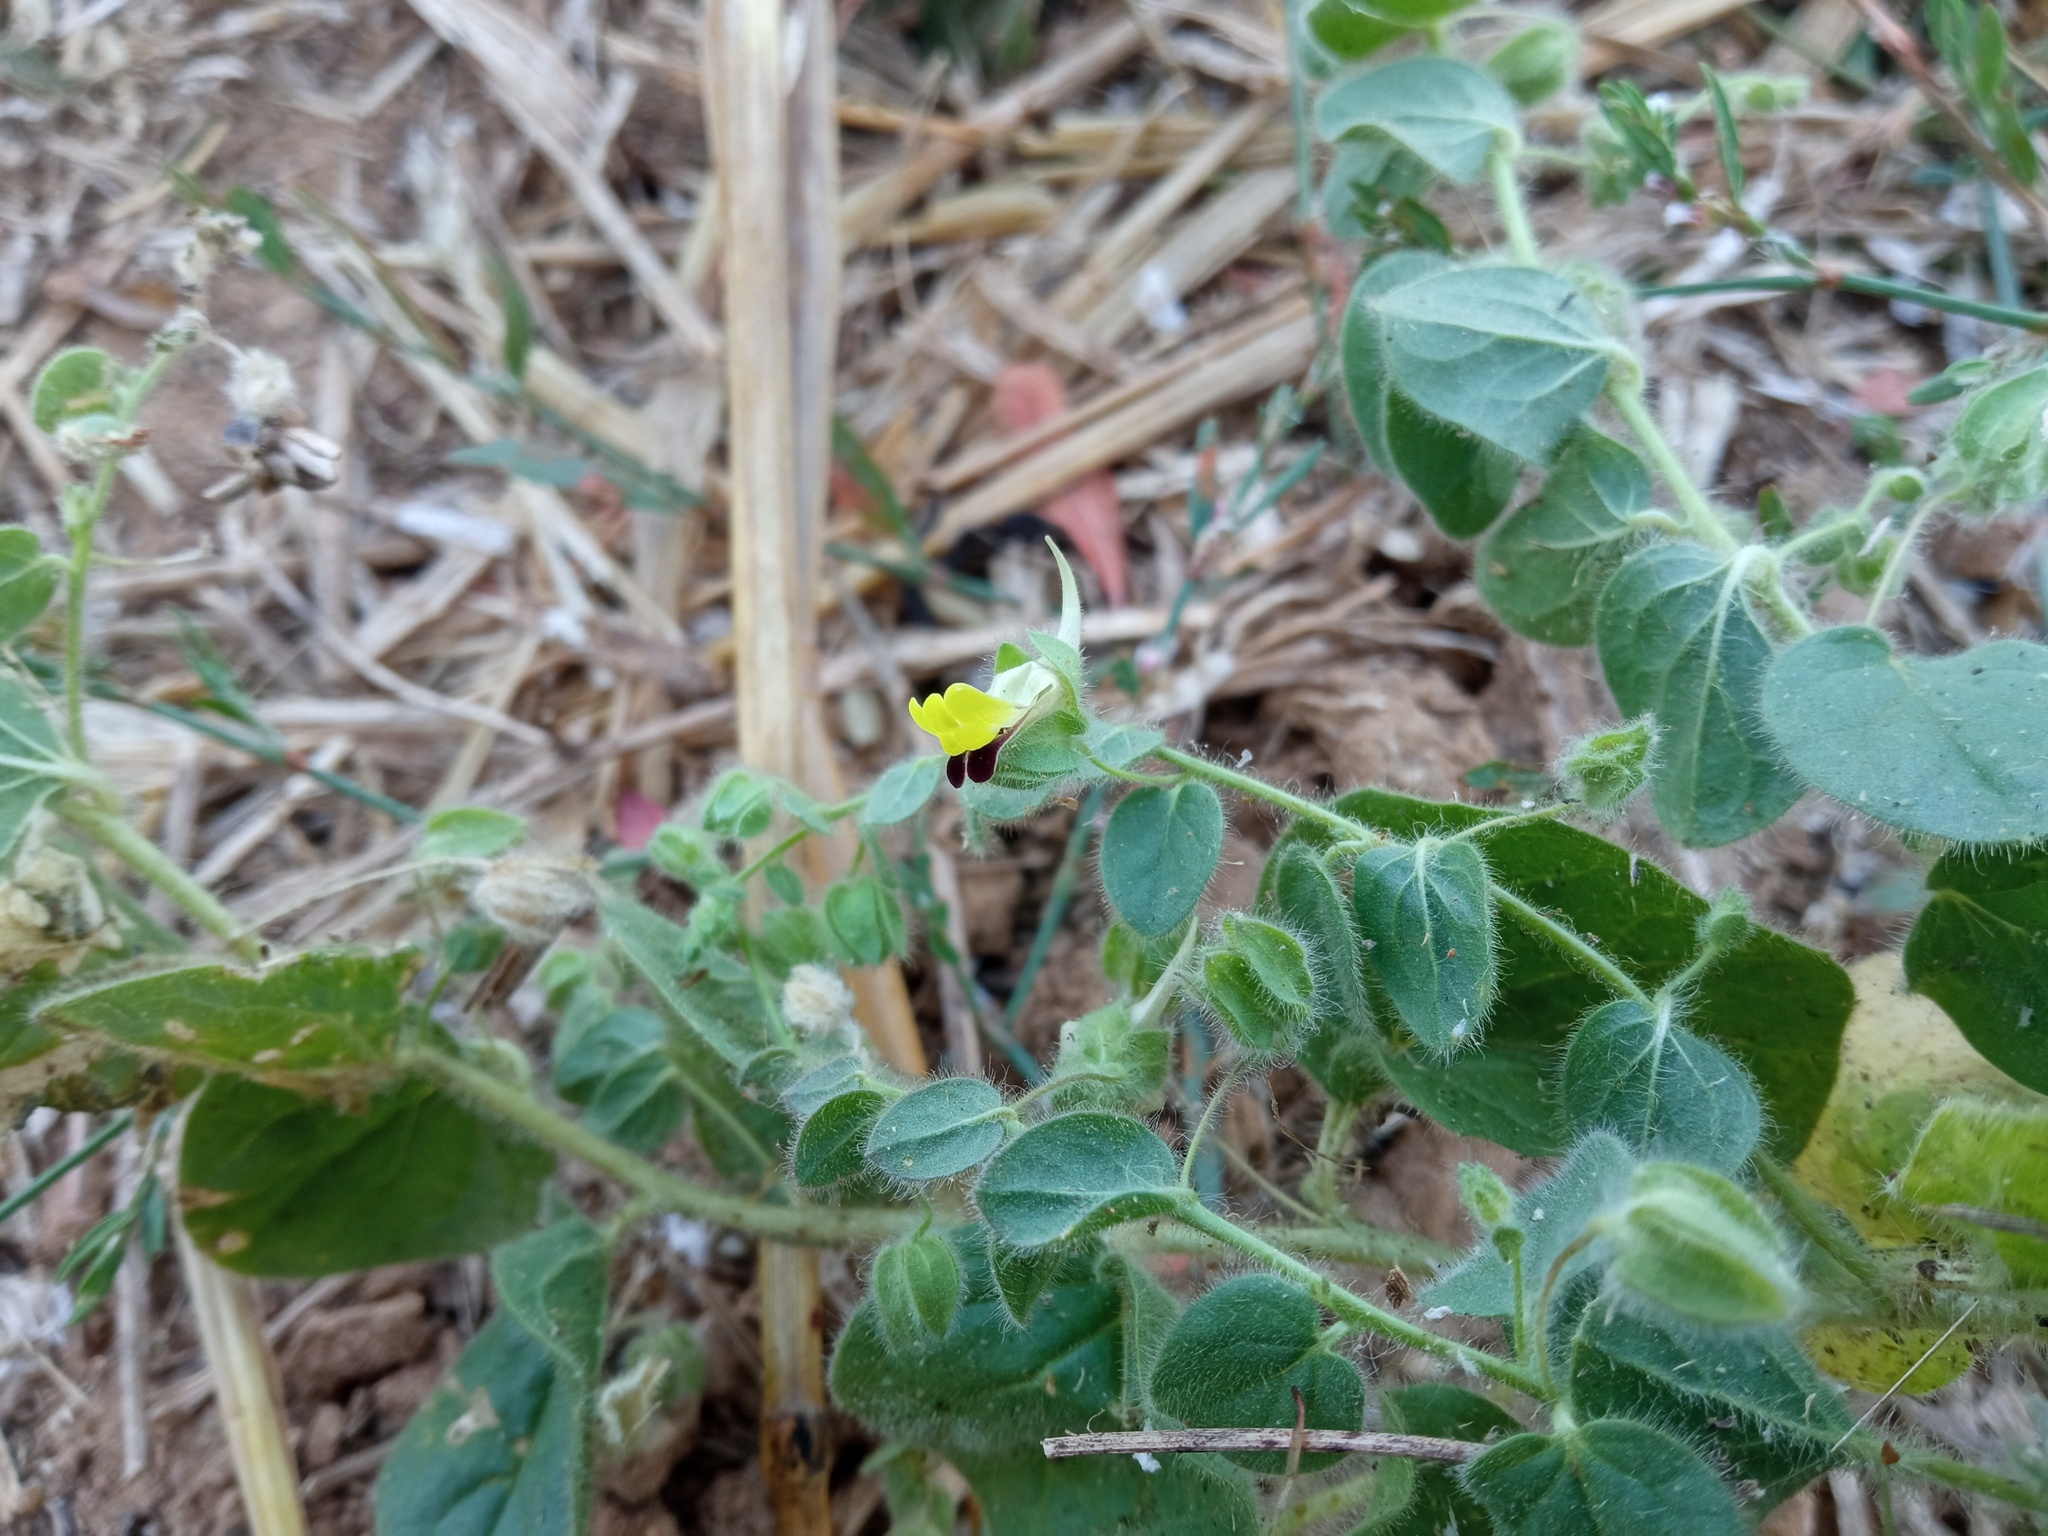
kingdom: Plantae
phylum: Tracheophyta
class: Magnoliopsida
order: Lamiales
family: Plantaginaceae
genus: Kickxia
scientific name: Kickxia spuria
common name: Round-leaved fluellen
